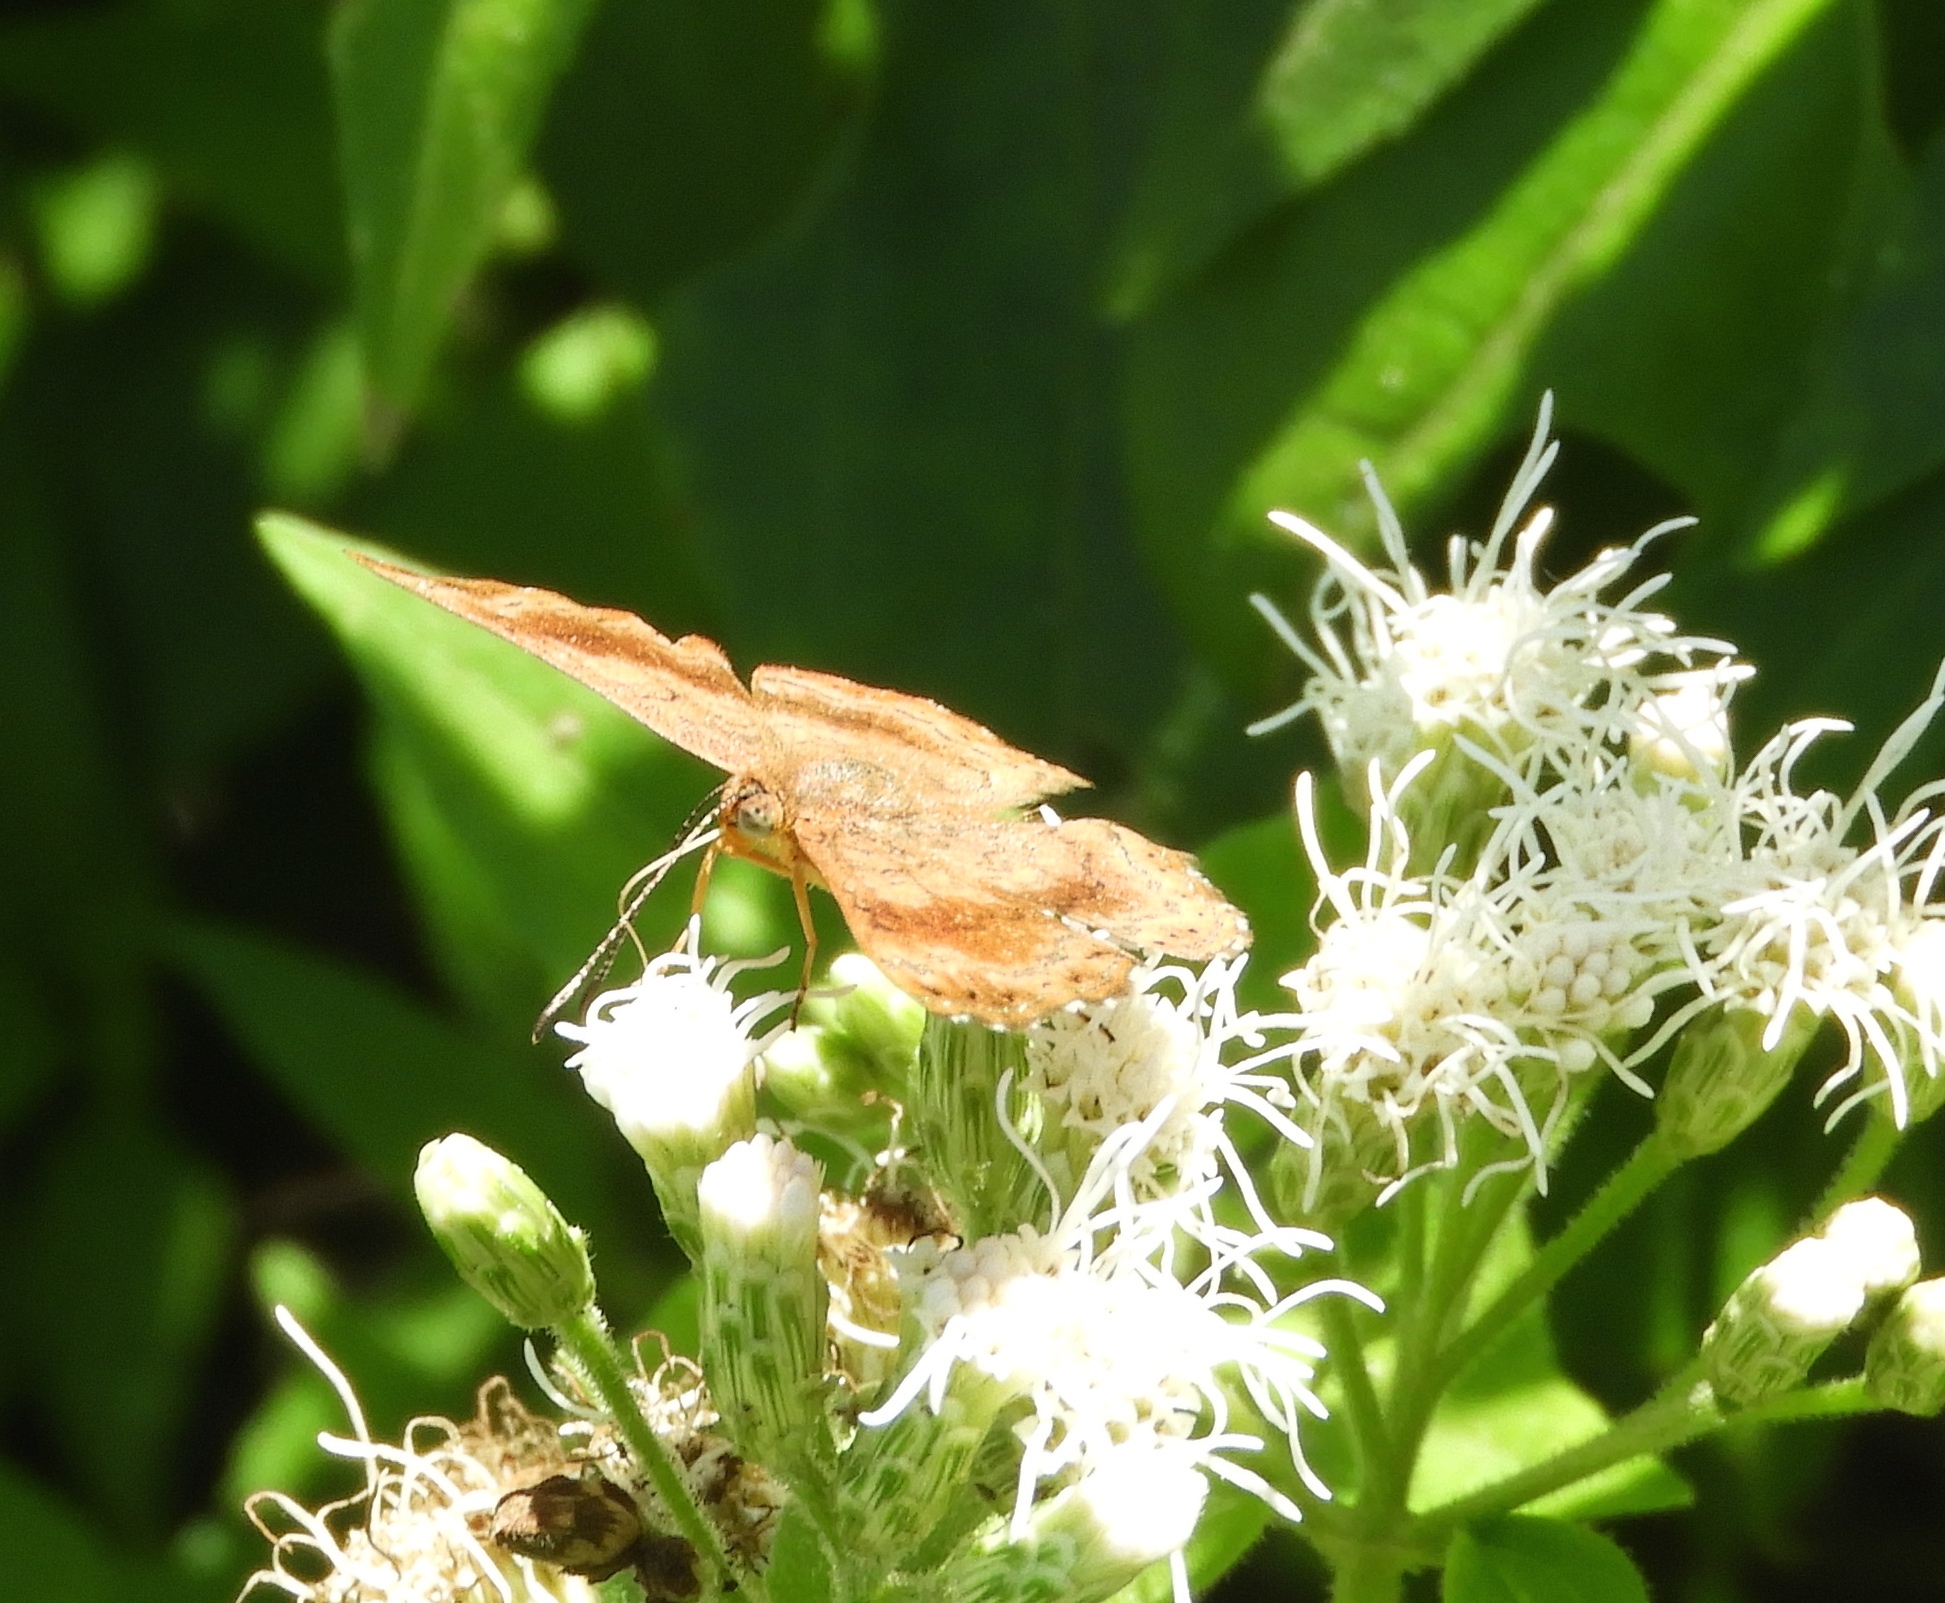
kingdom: Animalia
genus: Calephelis
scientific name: Calephelis
